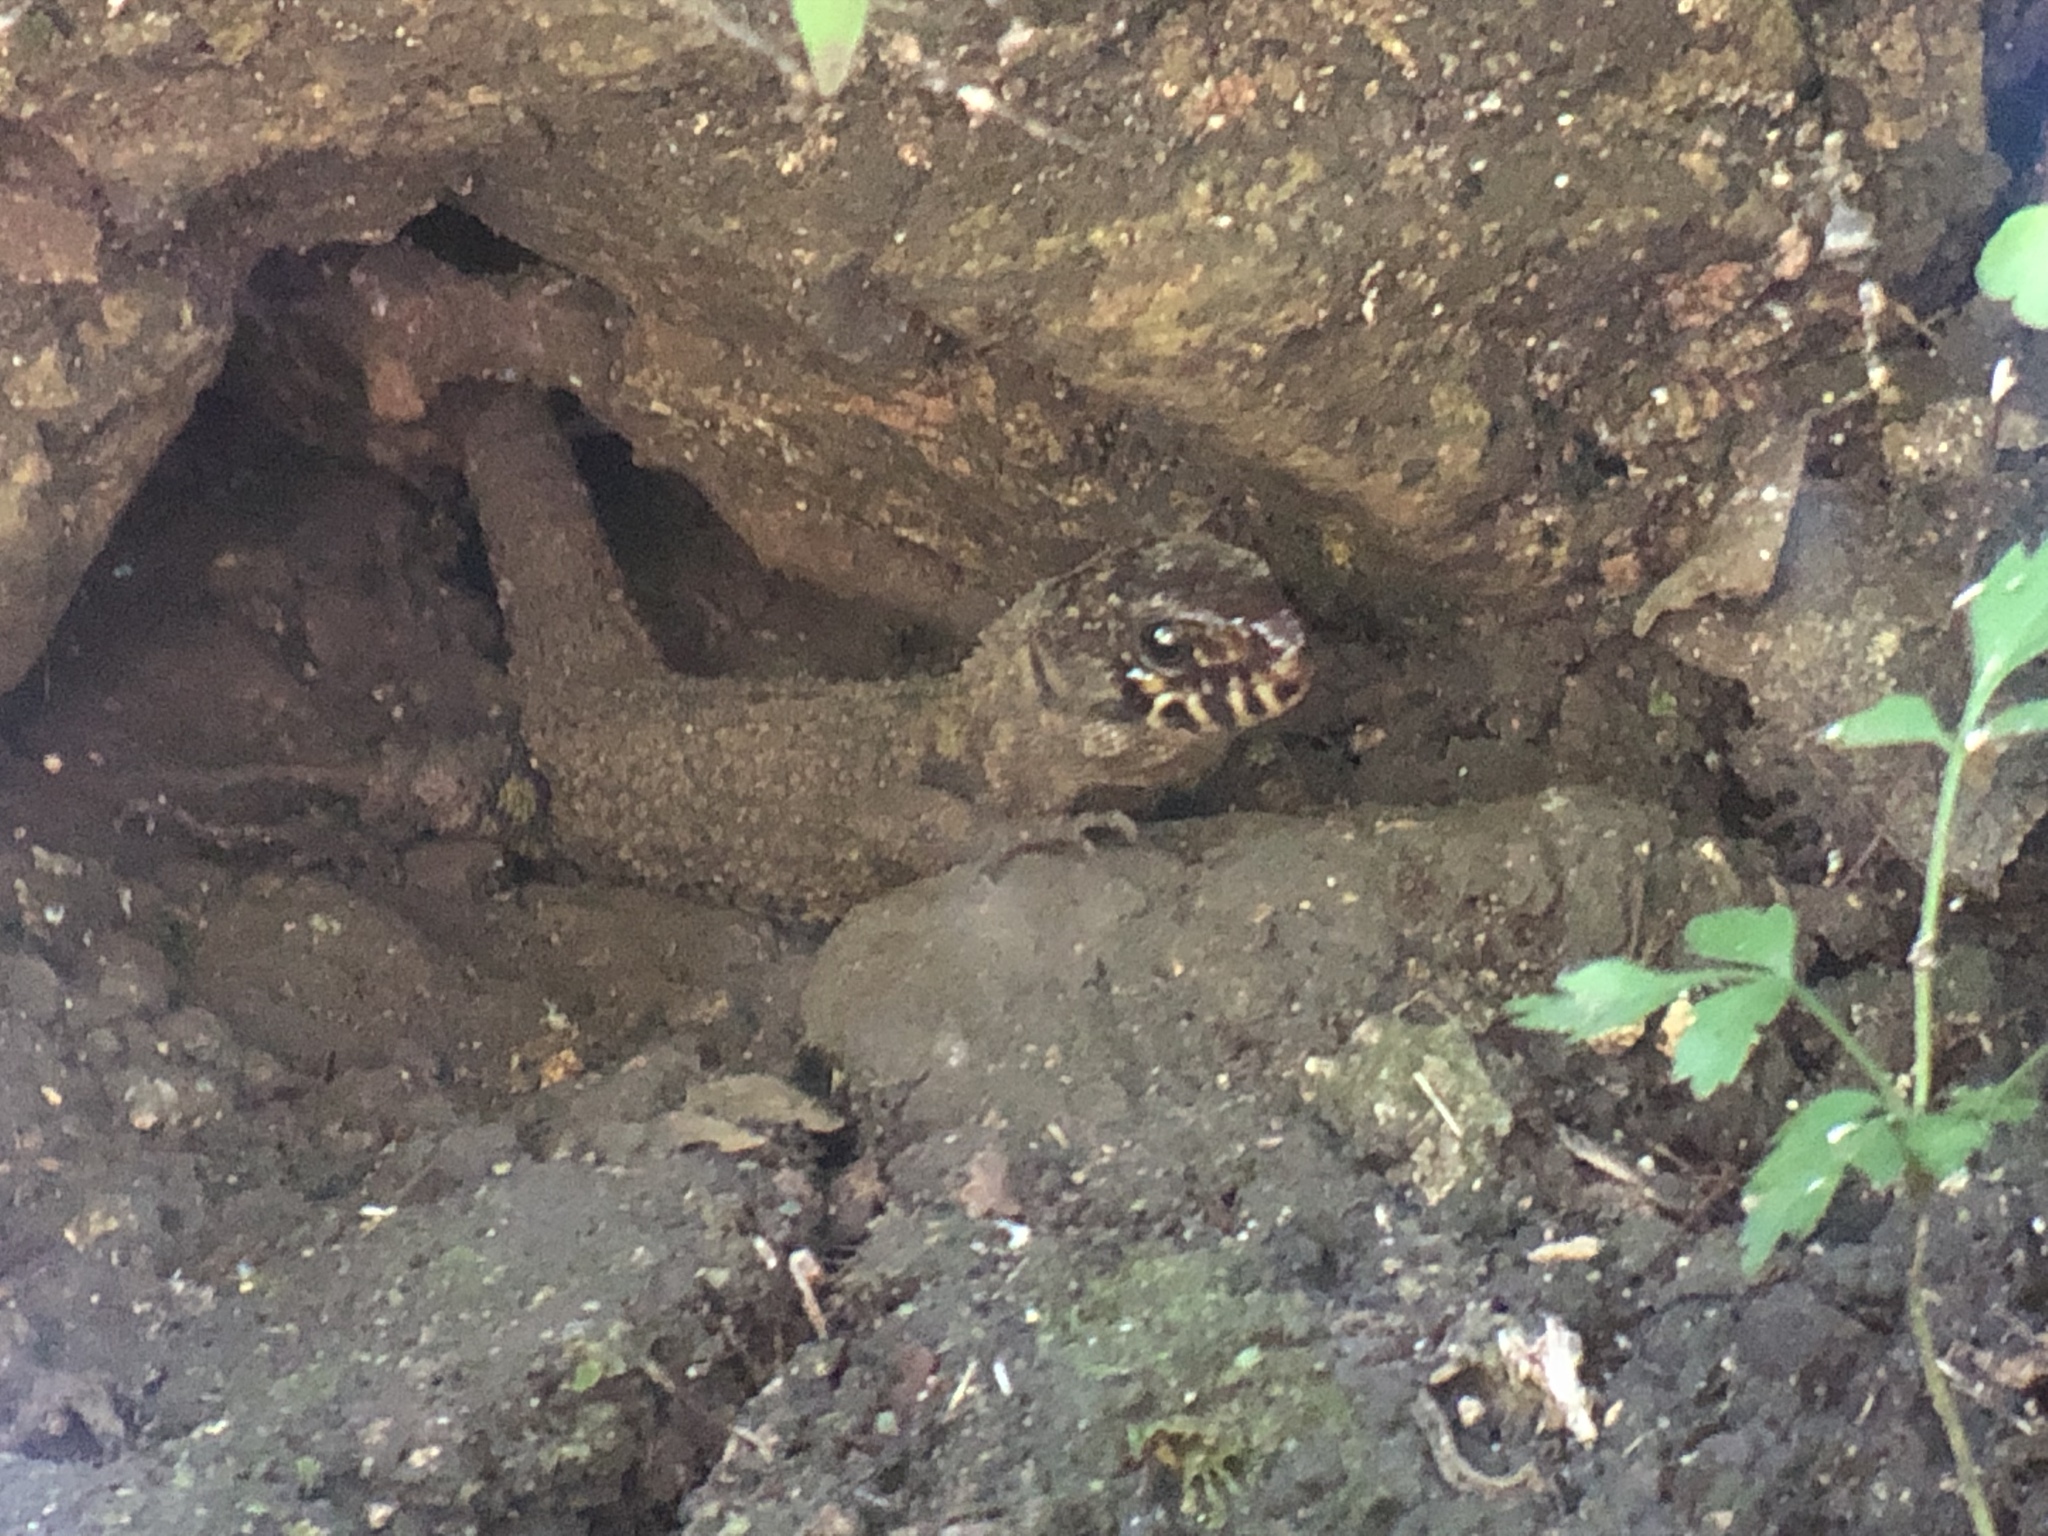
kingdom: Animalia
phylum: Chordata
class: Squamata
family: Xantusiidae
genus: Lepidophyma
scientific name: Lepidophyma reticulatum
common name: Costa rican tropical night lizard
